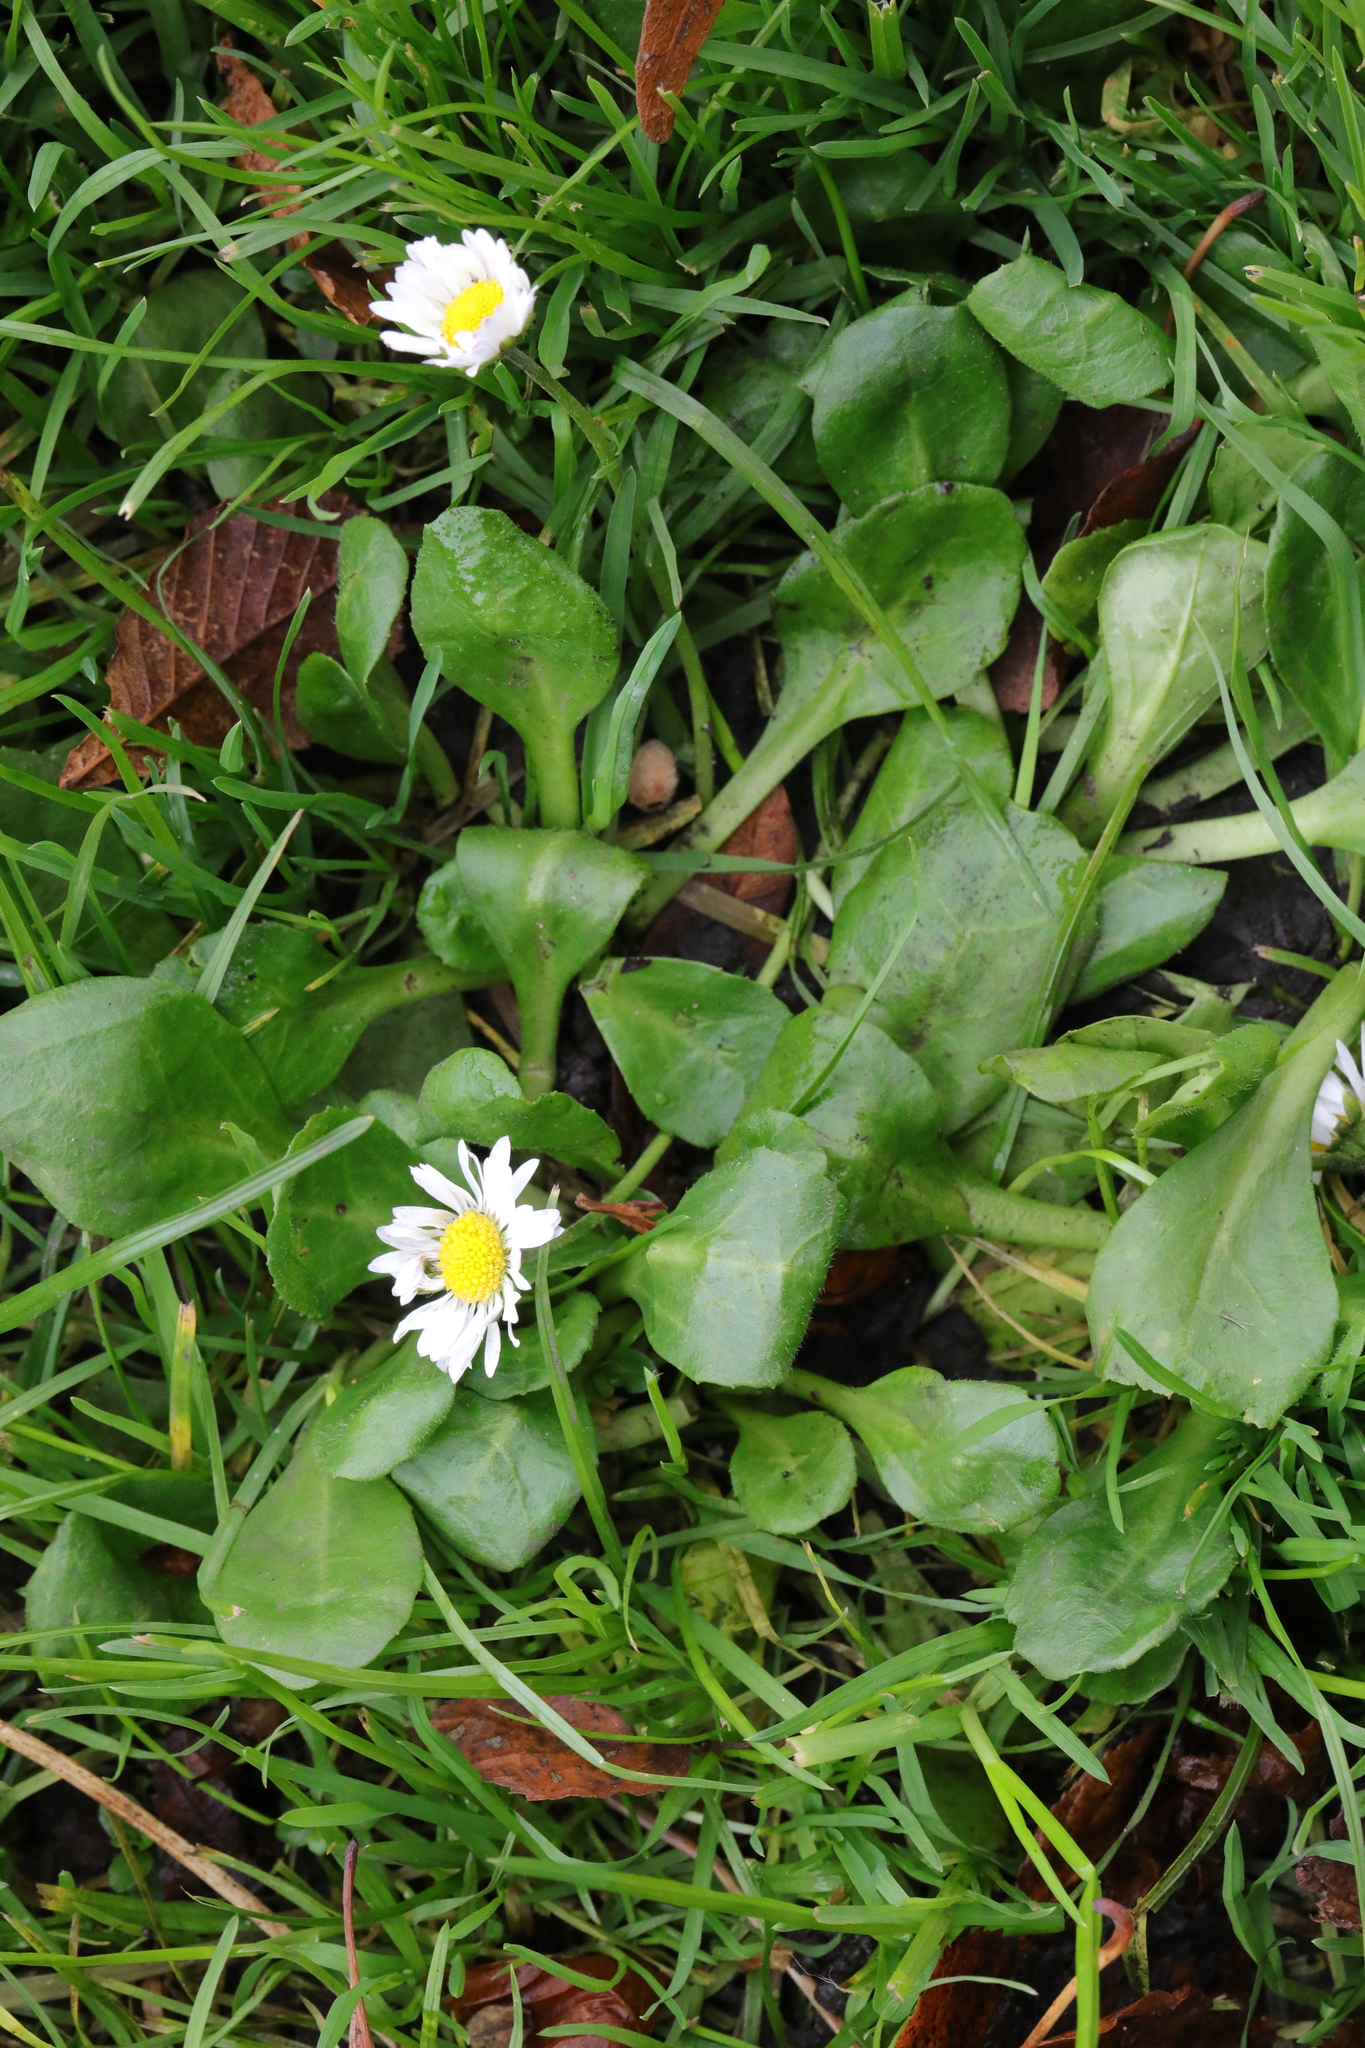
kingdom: Plantae
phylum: Tracheophyta
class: Magnoliopsida
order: Asterales
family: Asteraceae
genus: Bellis
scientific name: Bellis perennis
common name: Lawndaisy
